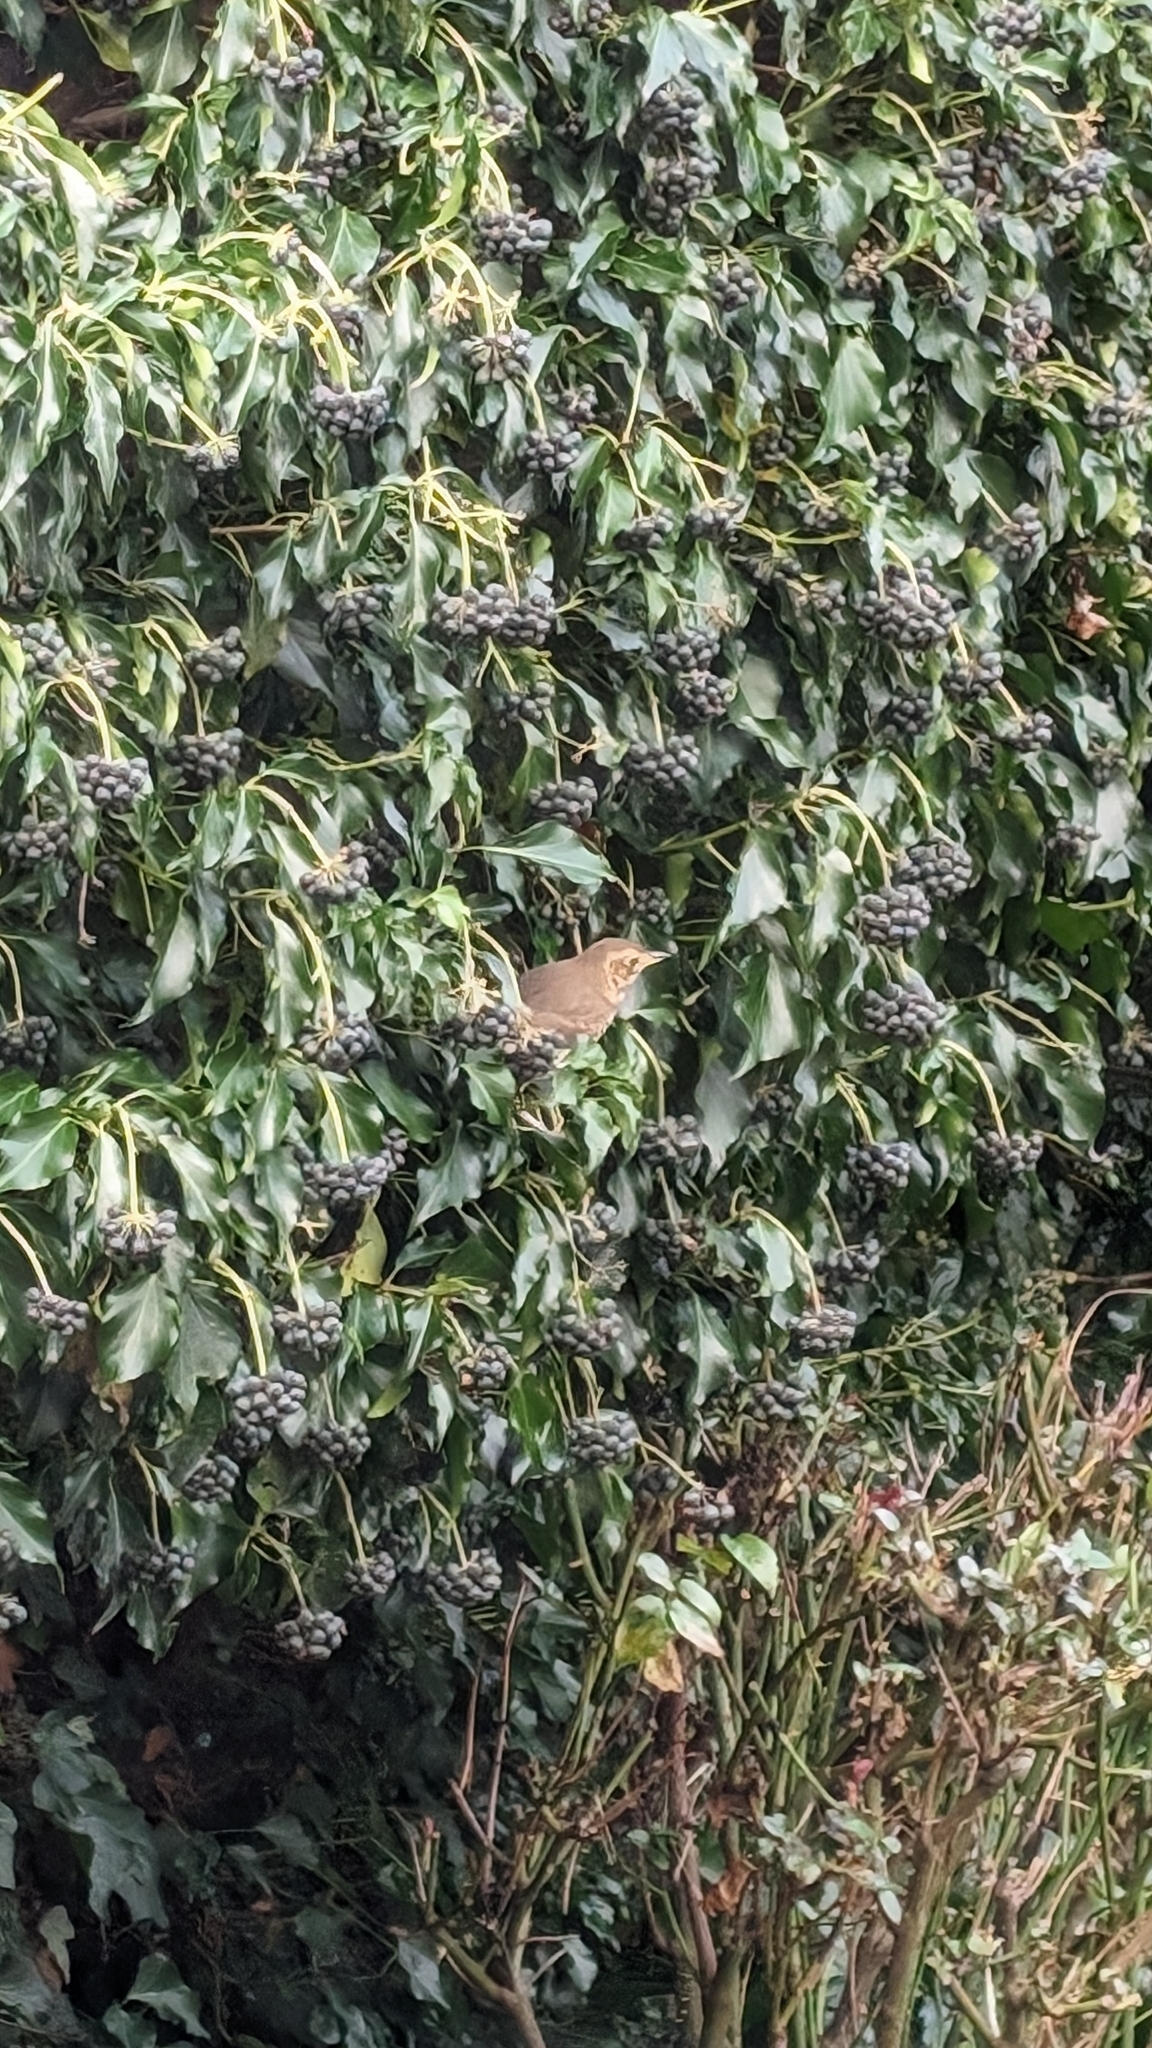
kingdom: Animalia
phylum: Chordata
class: Aves
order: Passeriformes
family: Turdidae
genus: Turdus
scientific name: Turdus philomelos
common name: Song thrush
